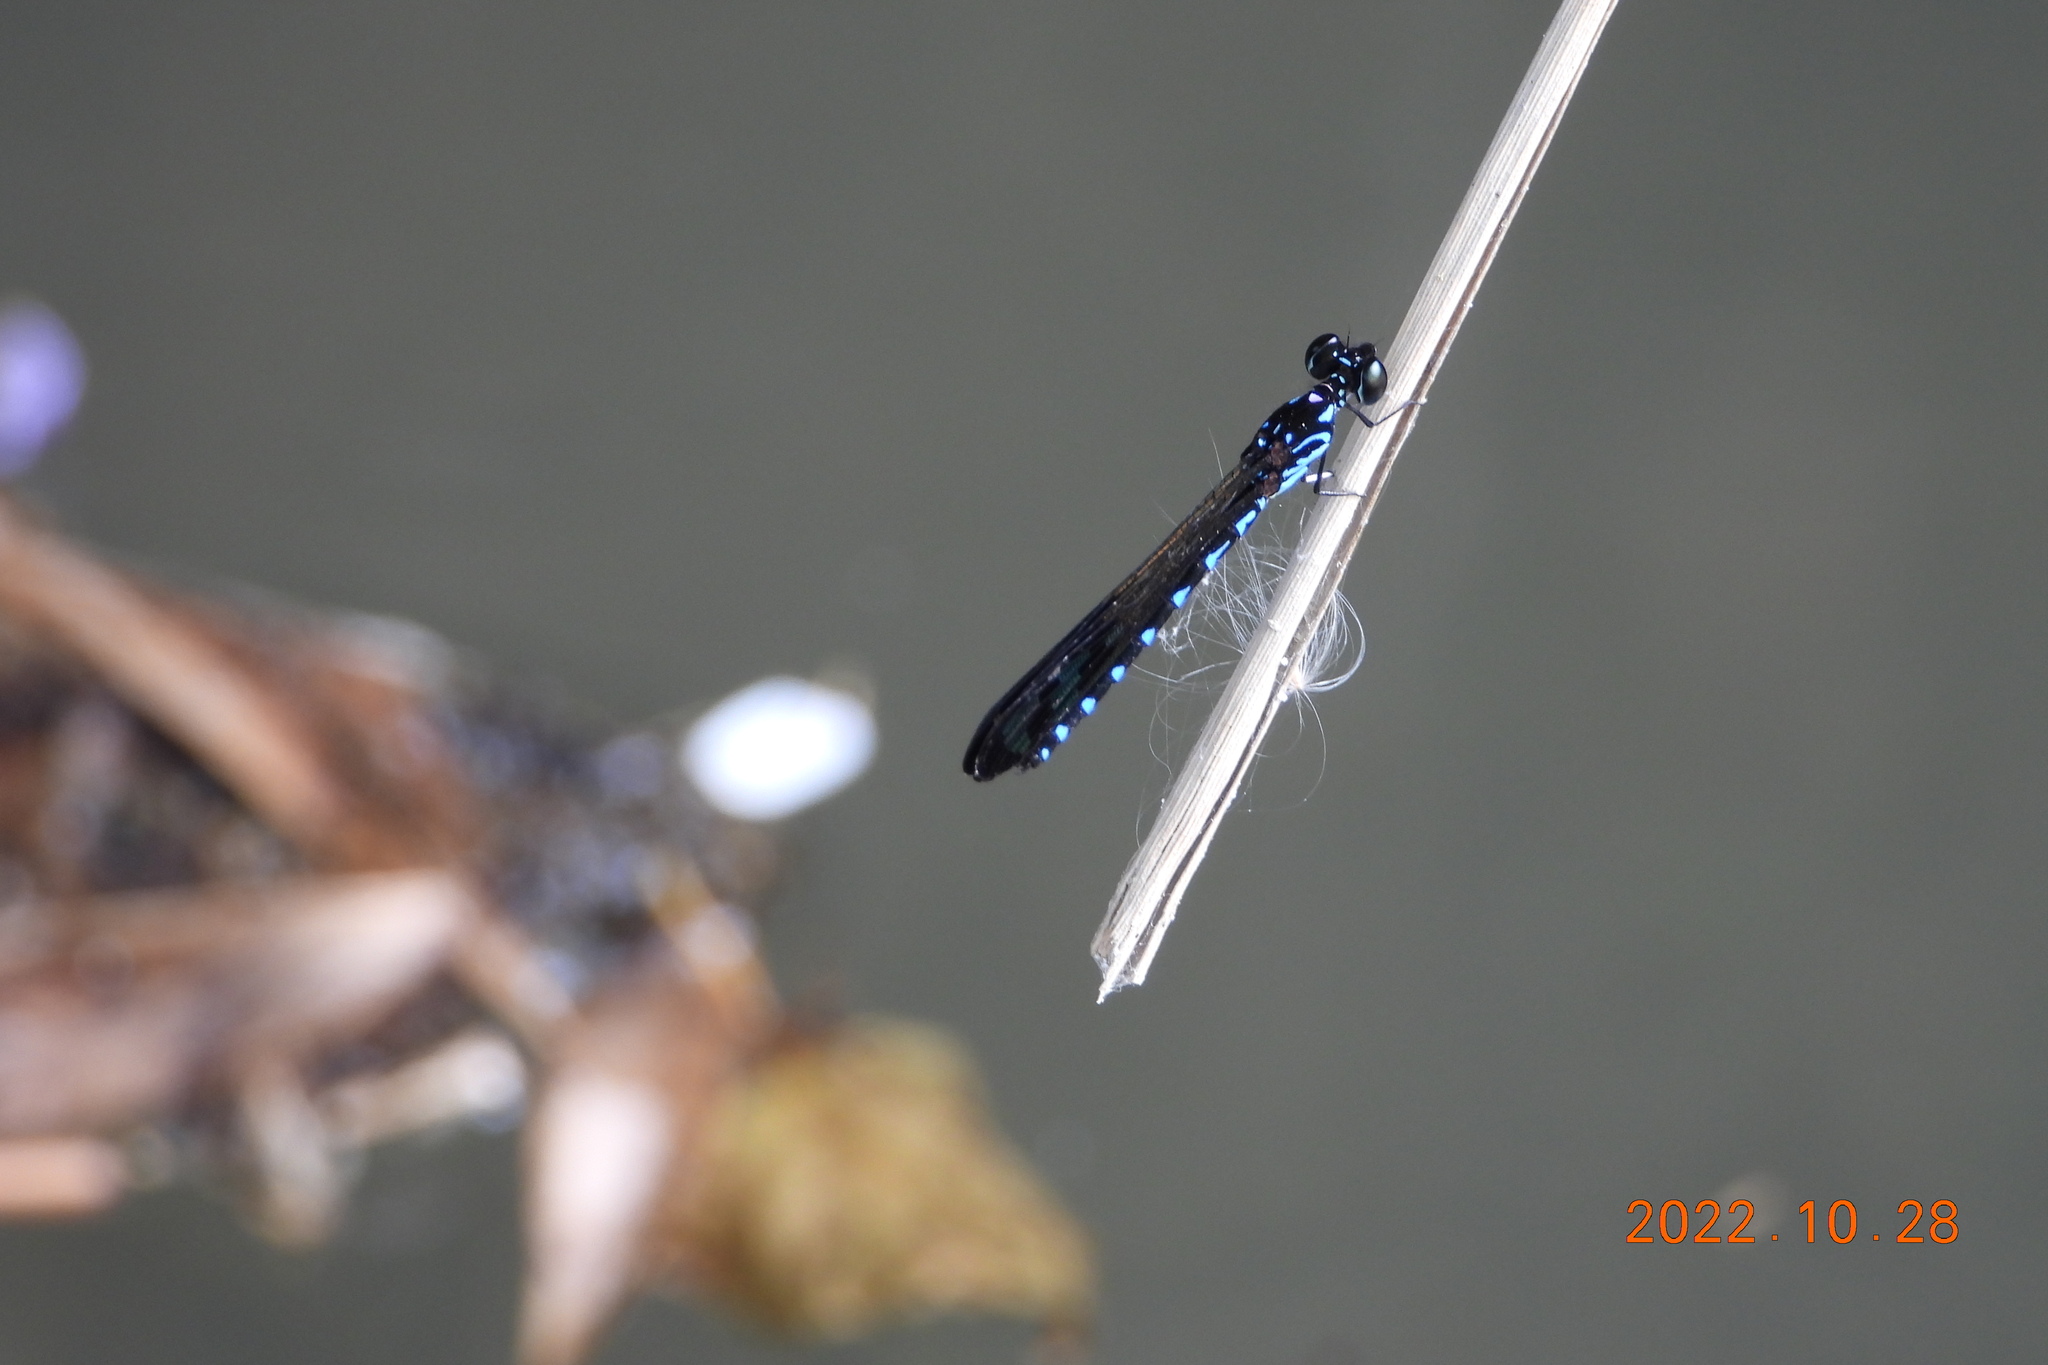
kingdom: Animalia
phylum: Arthropoda
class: Insecta
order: Odonata
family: Chlorocyphidae
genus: Heliocypha
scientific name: Heliocypha perforata
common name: Common blue jewel
